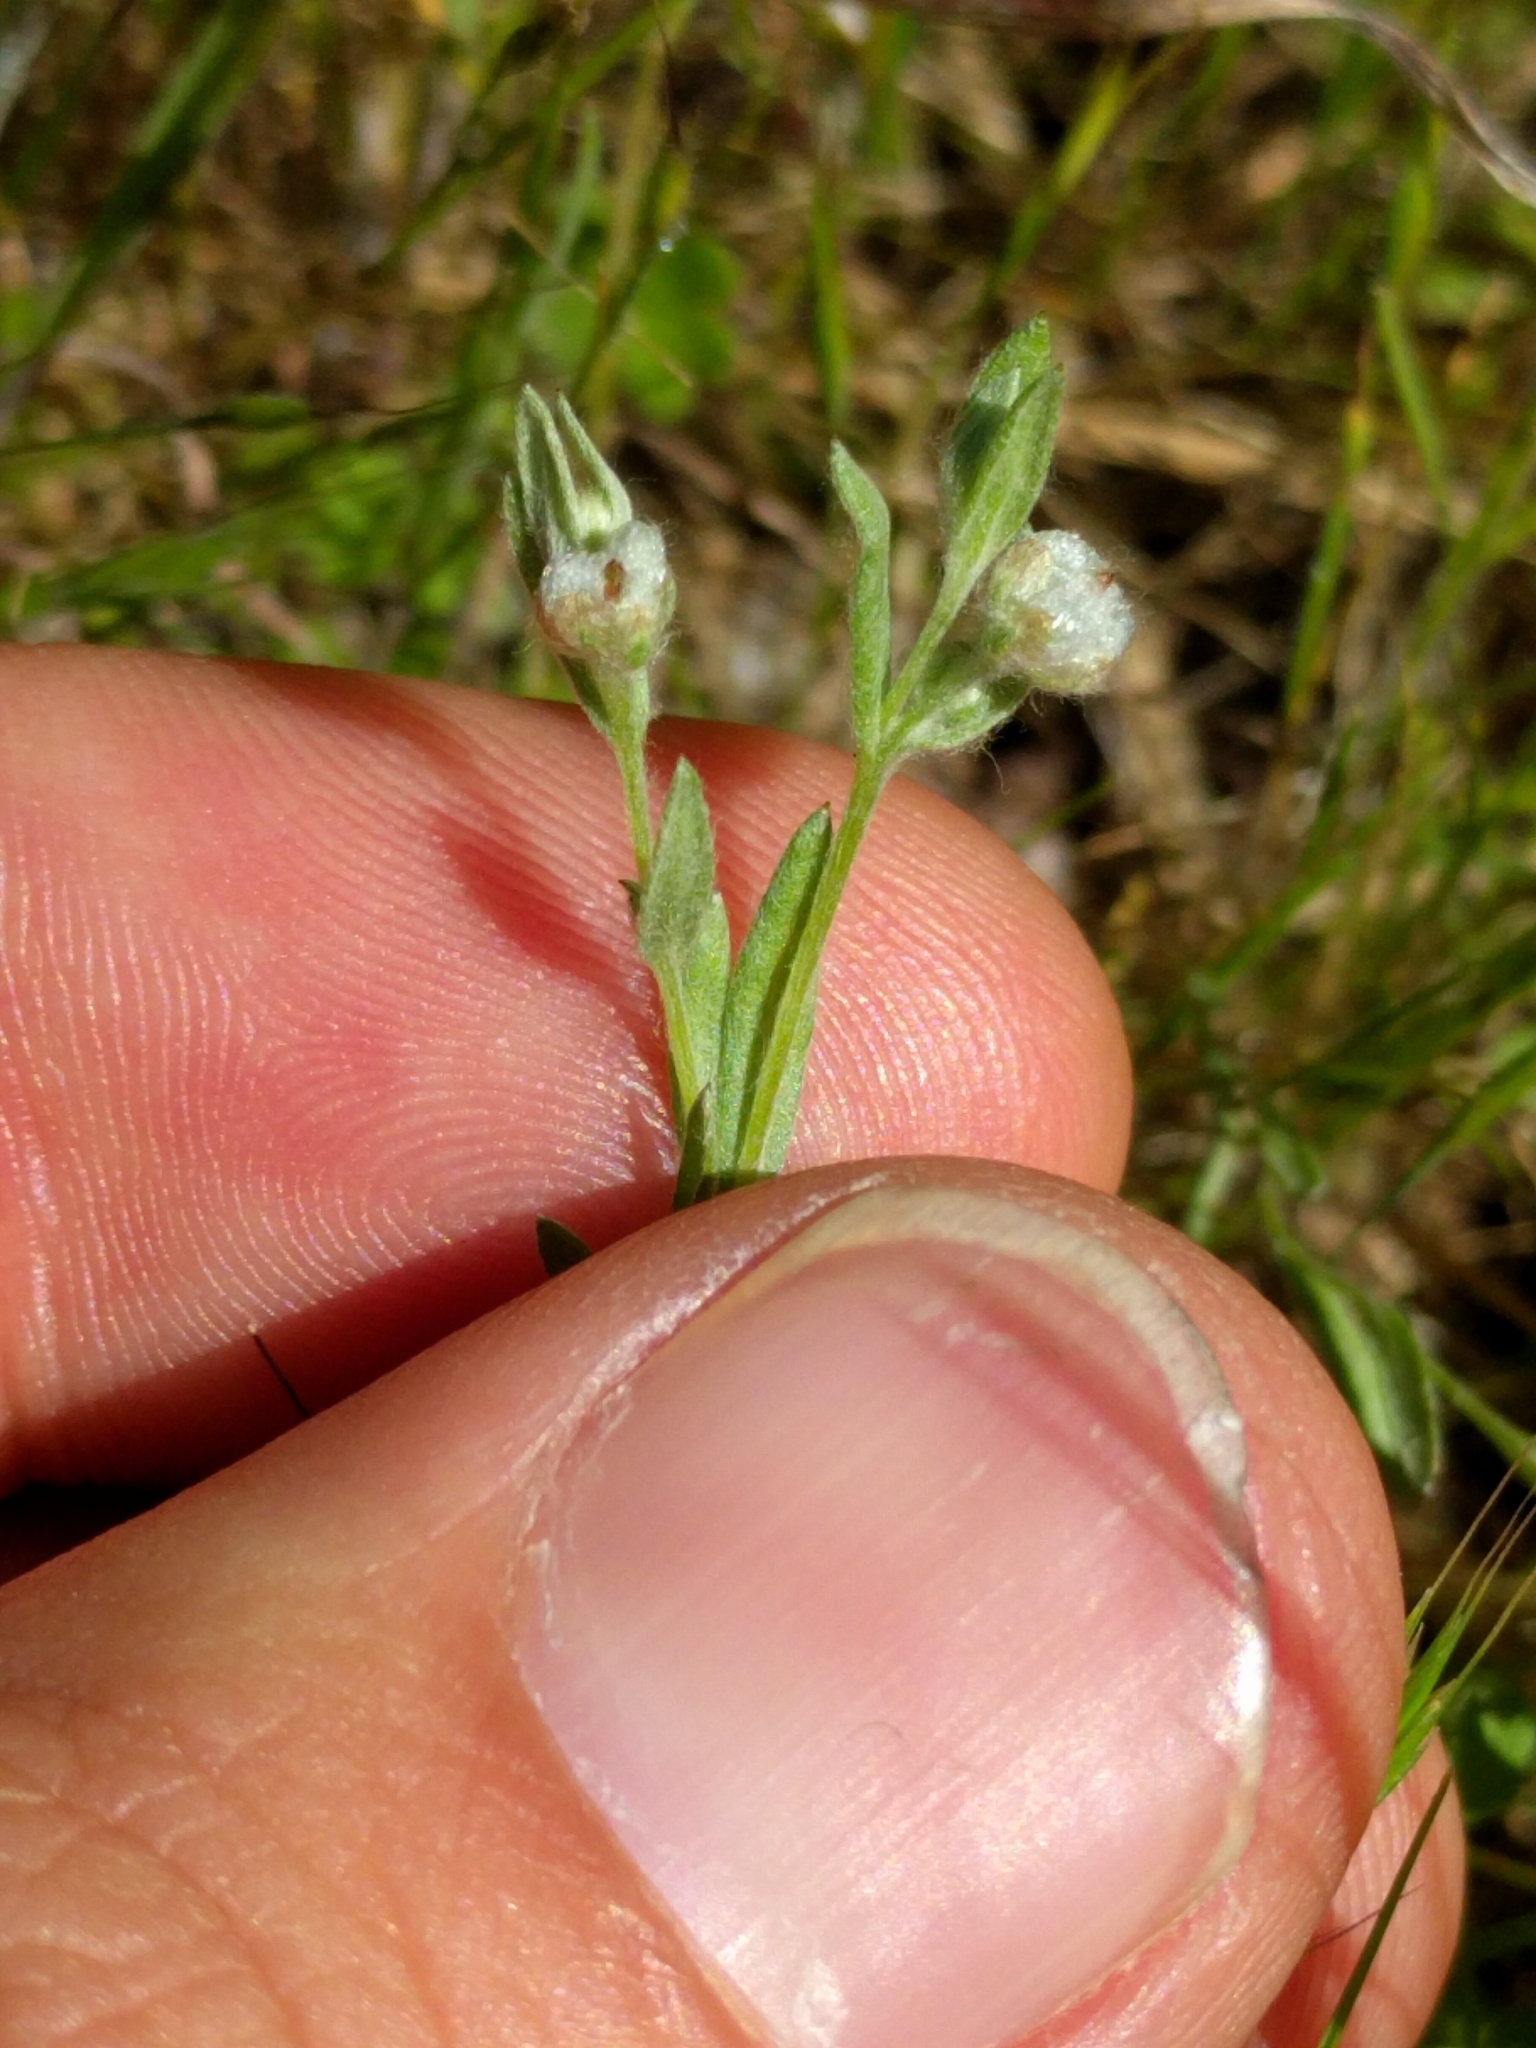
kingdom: Plantae
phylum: Tracheophyta
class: Magnoliopsida
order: Asterales
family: Asteraceae
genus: Bombycilaena
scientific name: Bombycilaena californica
